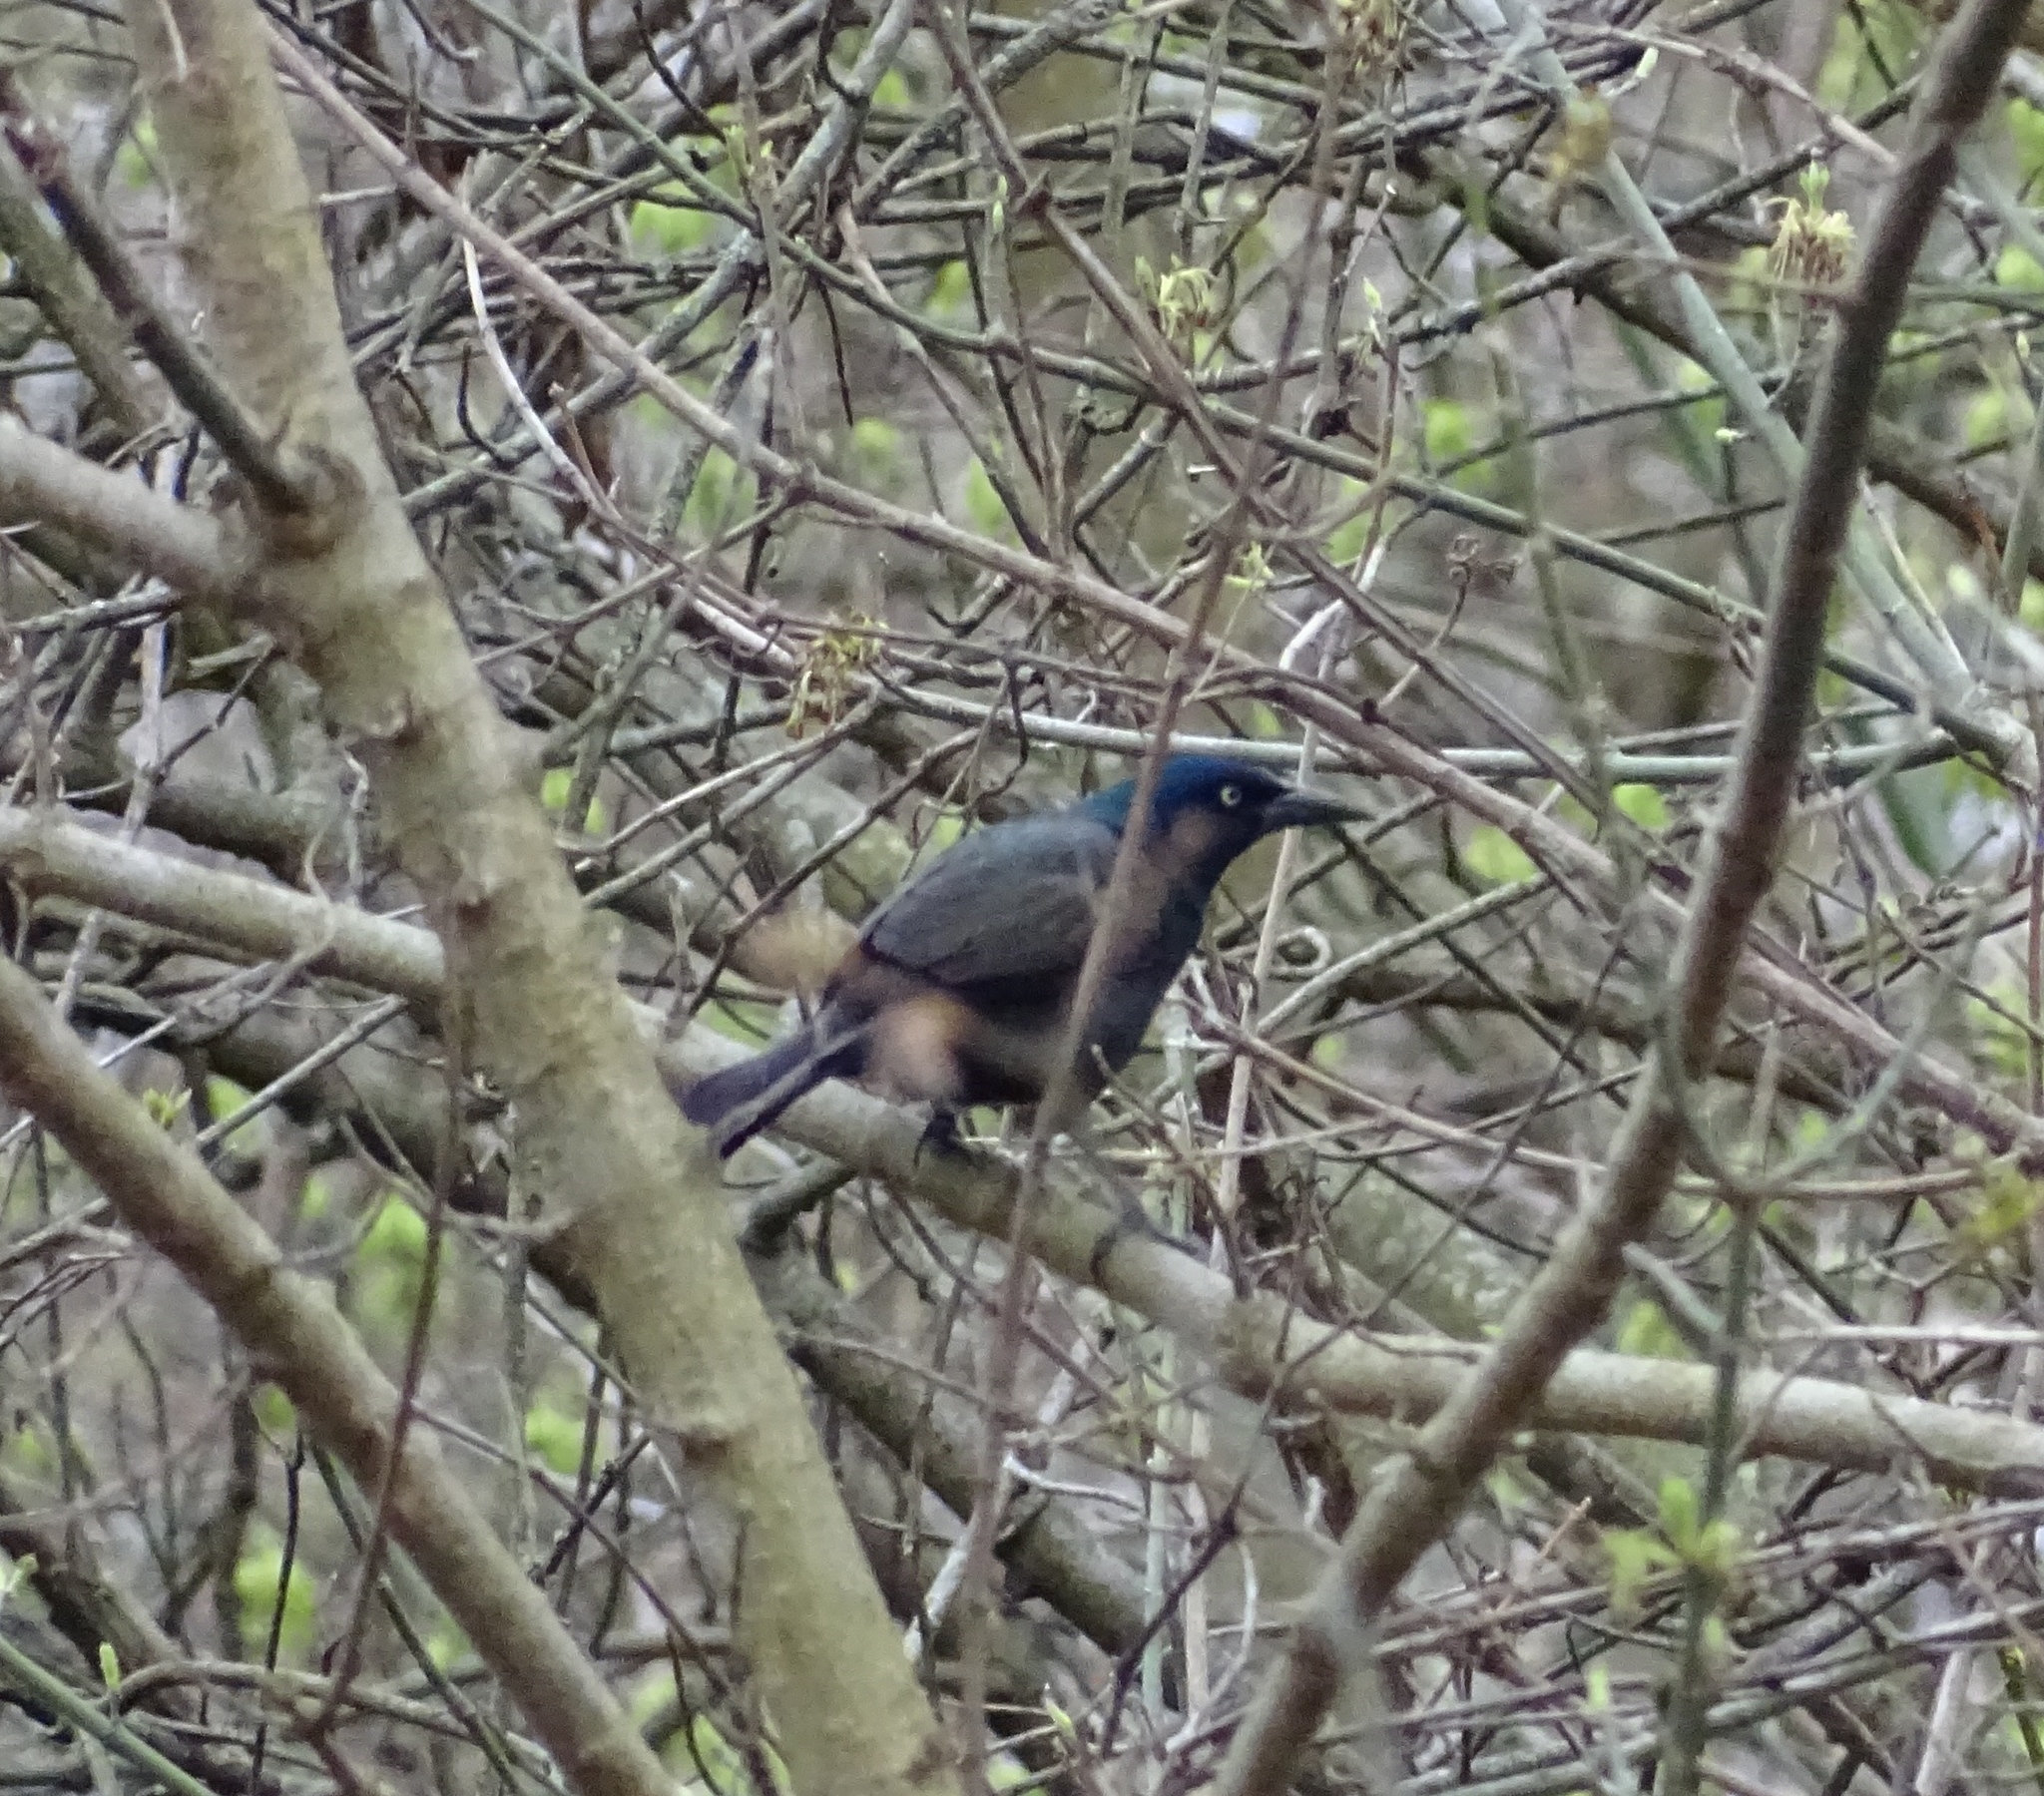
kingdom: Animalia
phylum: Chordata
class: Aves
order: Passeriformes
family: Icteridae
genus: Quiscalus
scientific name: Quiscalus quiscula
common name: Common grackle
